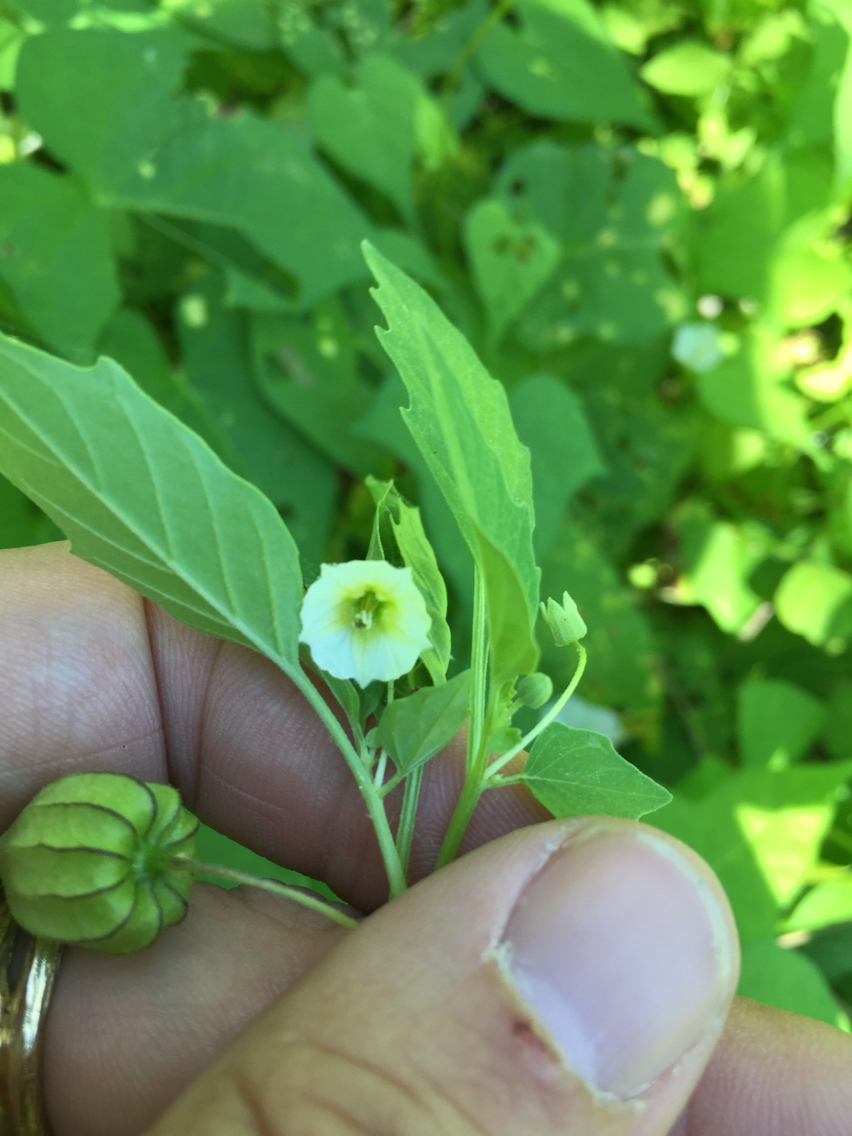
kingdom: Plantae
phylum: Tracheophyta
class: Magnoliopsida
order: Solanales
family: Solanaceae
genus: Physalis
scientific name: Physalis angulata
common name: Angular winter-cherry
